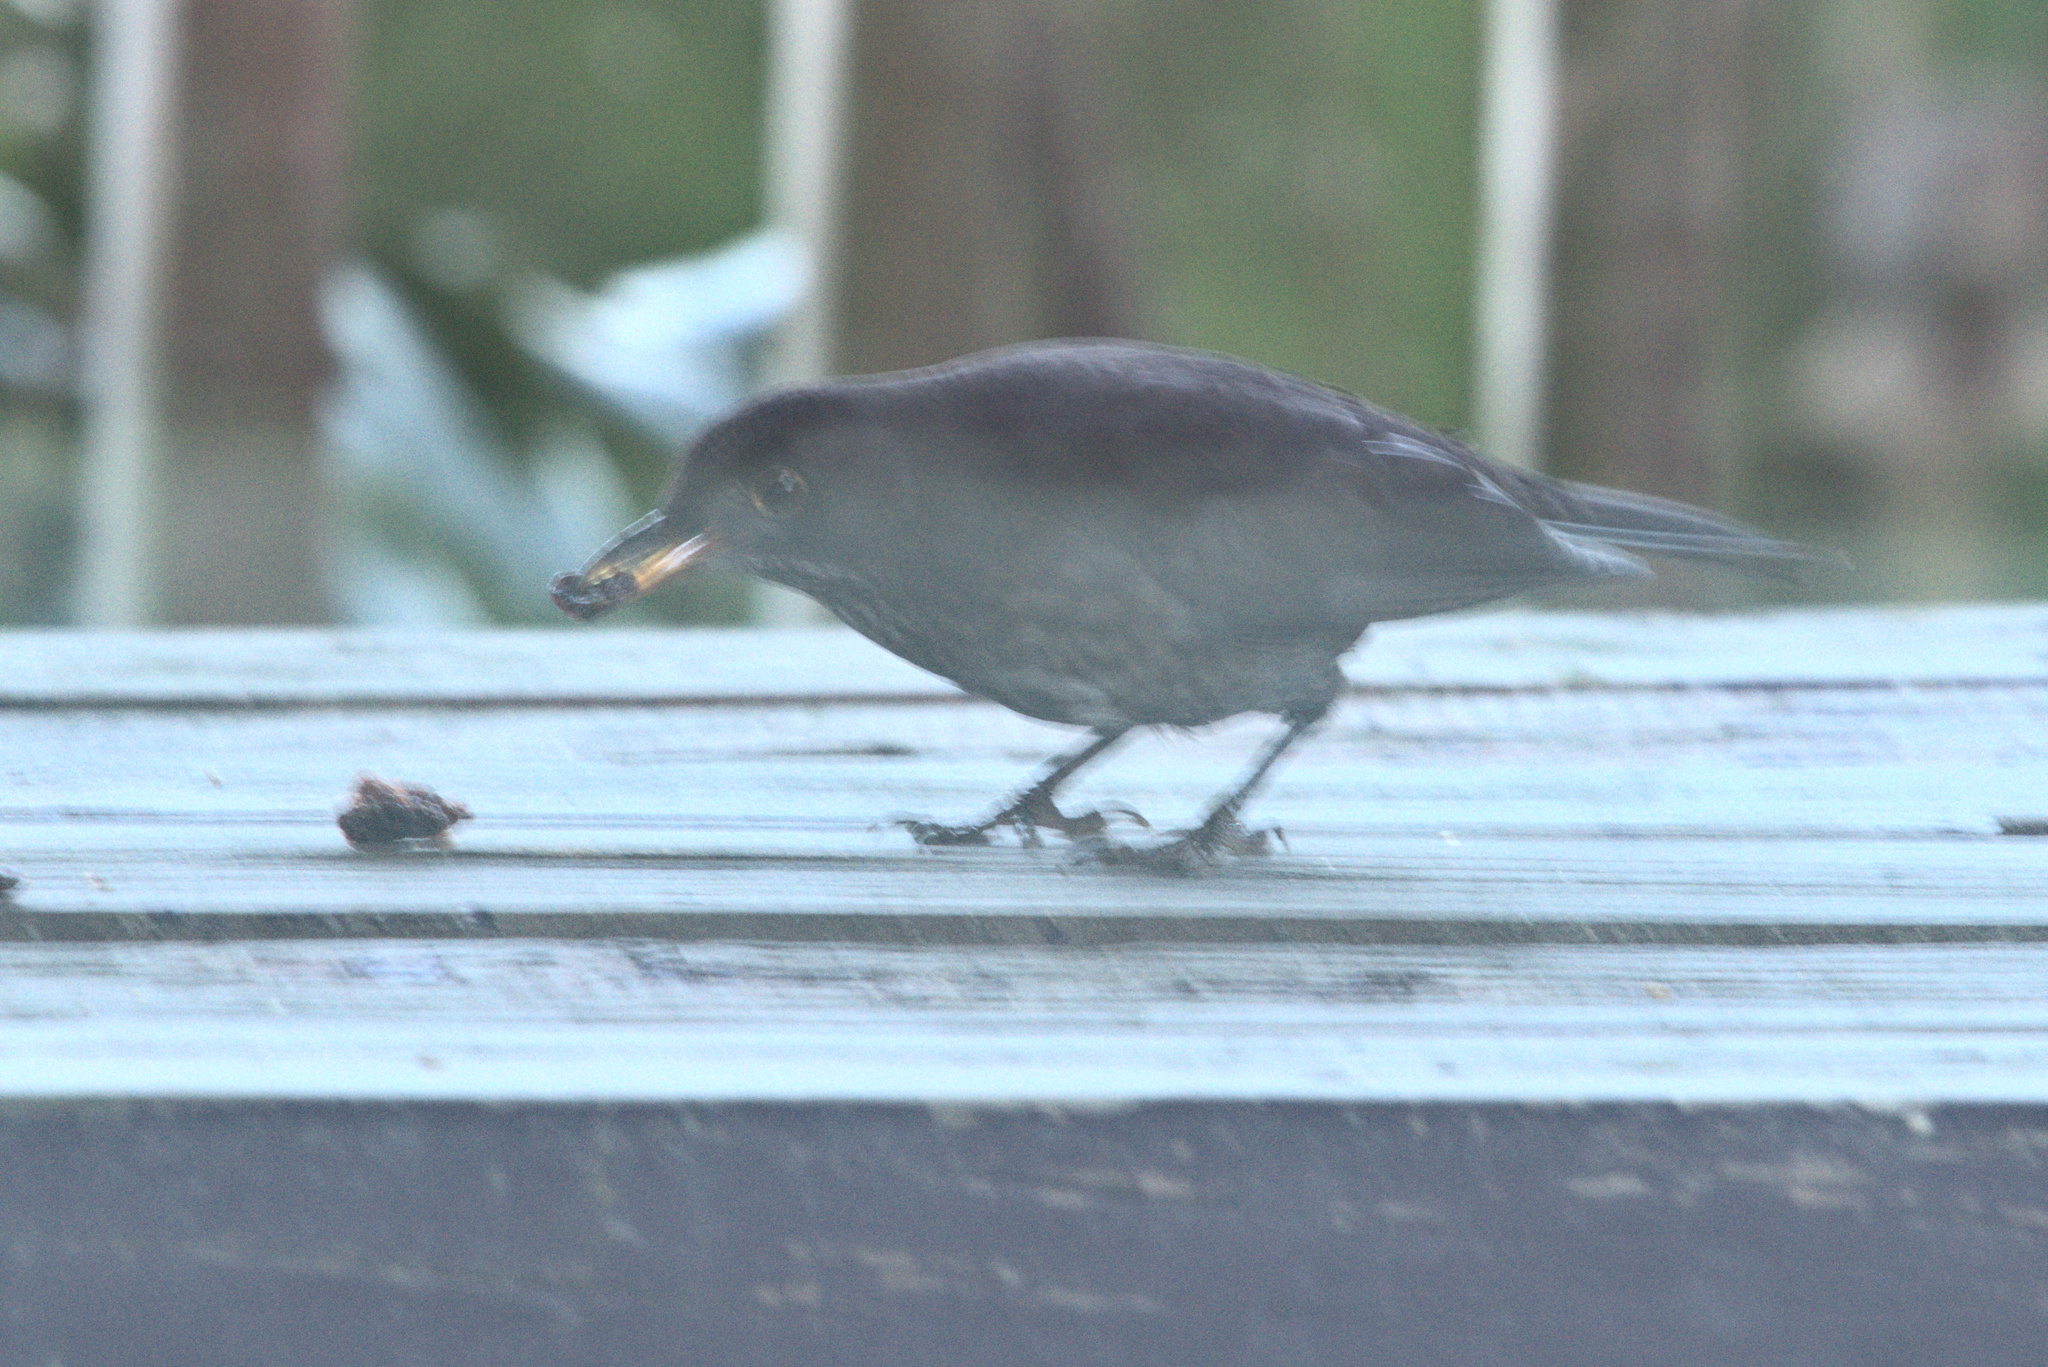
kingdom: Animalia
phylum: Chordata
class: Aves
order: Passeriformes
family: Turdidae
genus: Turdus
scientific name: Turdus merula
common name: Common blackbird
